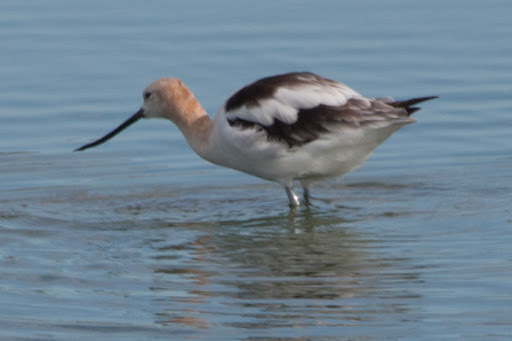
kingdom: Animalia
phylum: Chordata
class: Aves
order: Charadriiformes
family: Recurvirostridae
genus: Recurvirostra
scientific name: Recurvirostra americana
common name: American avocet
